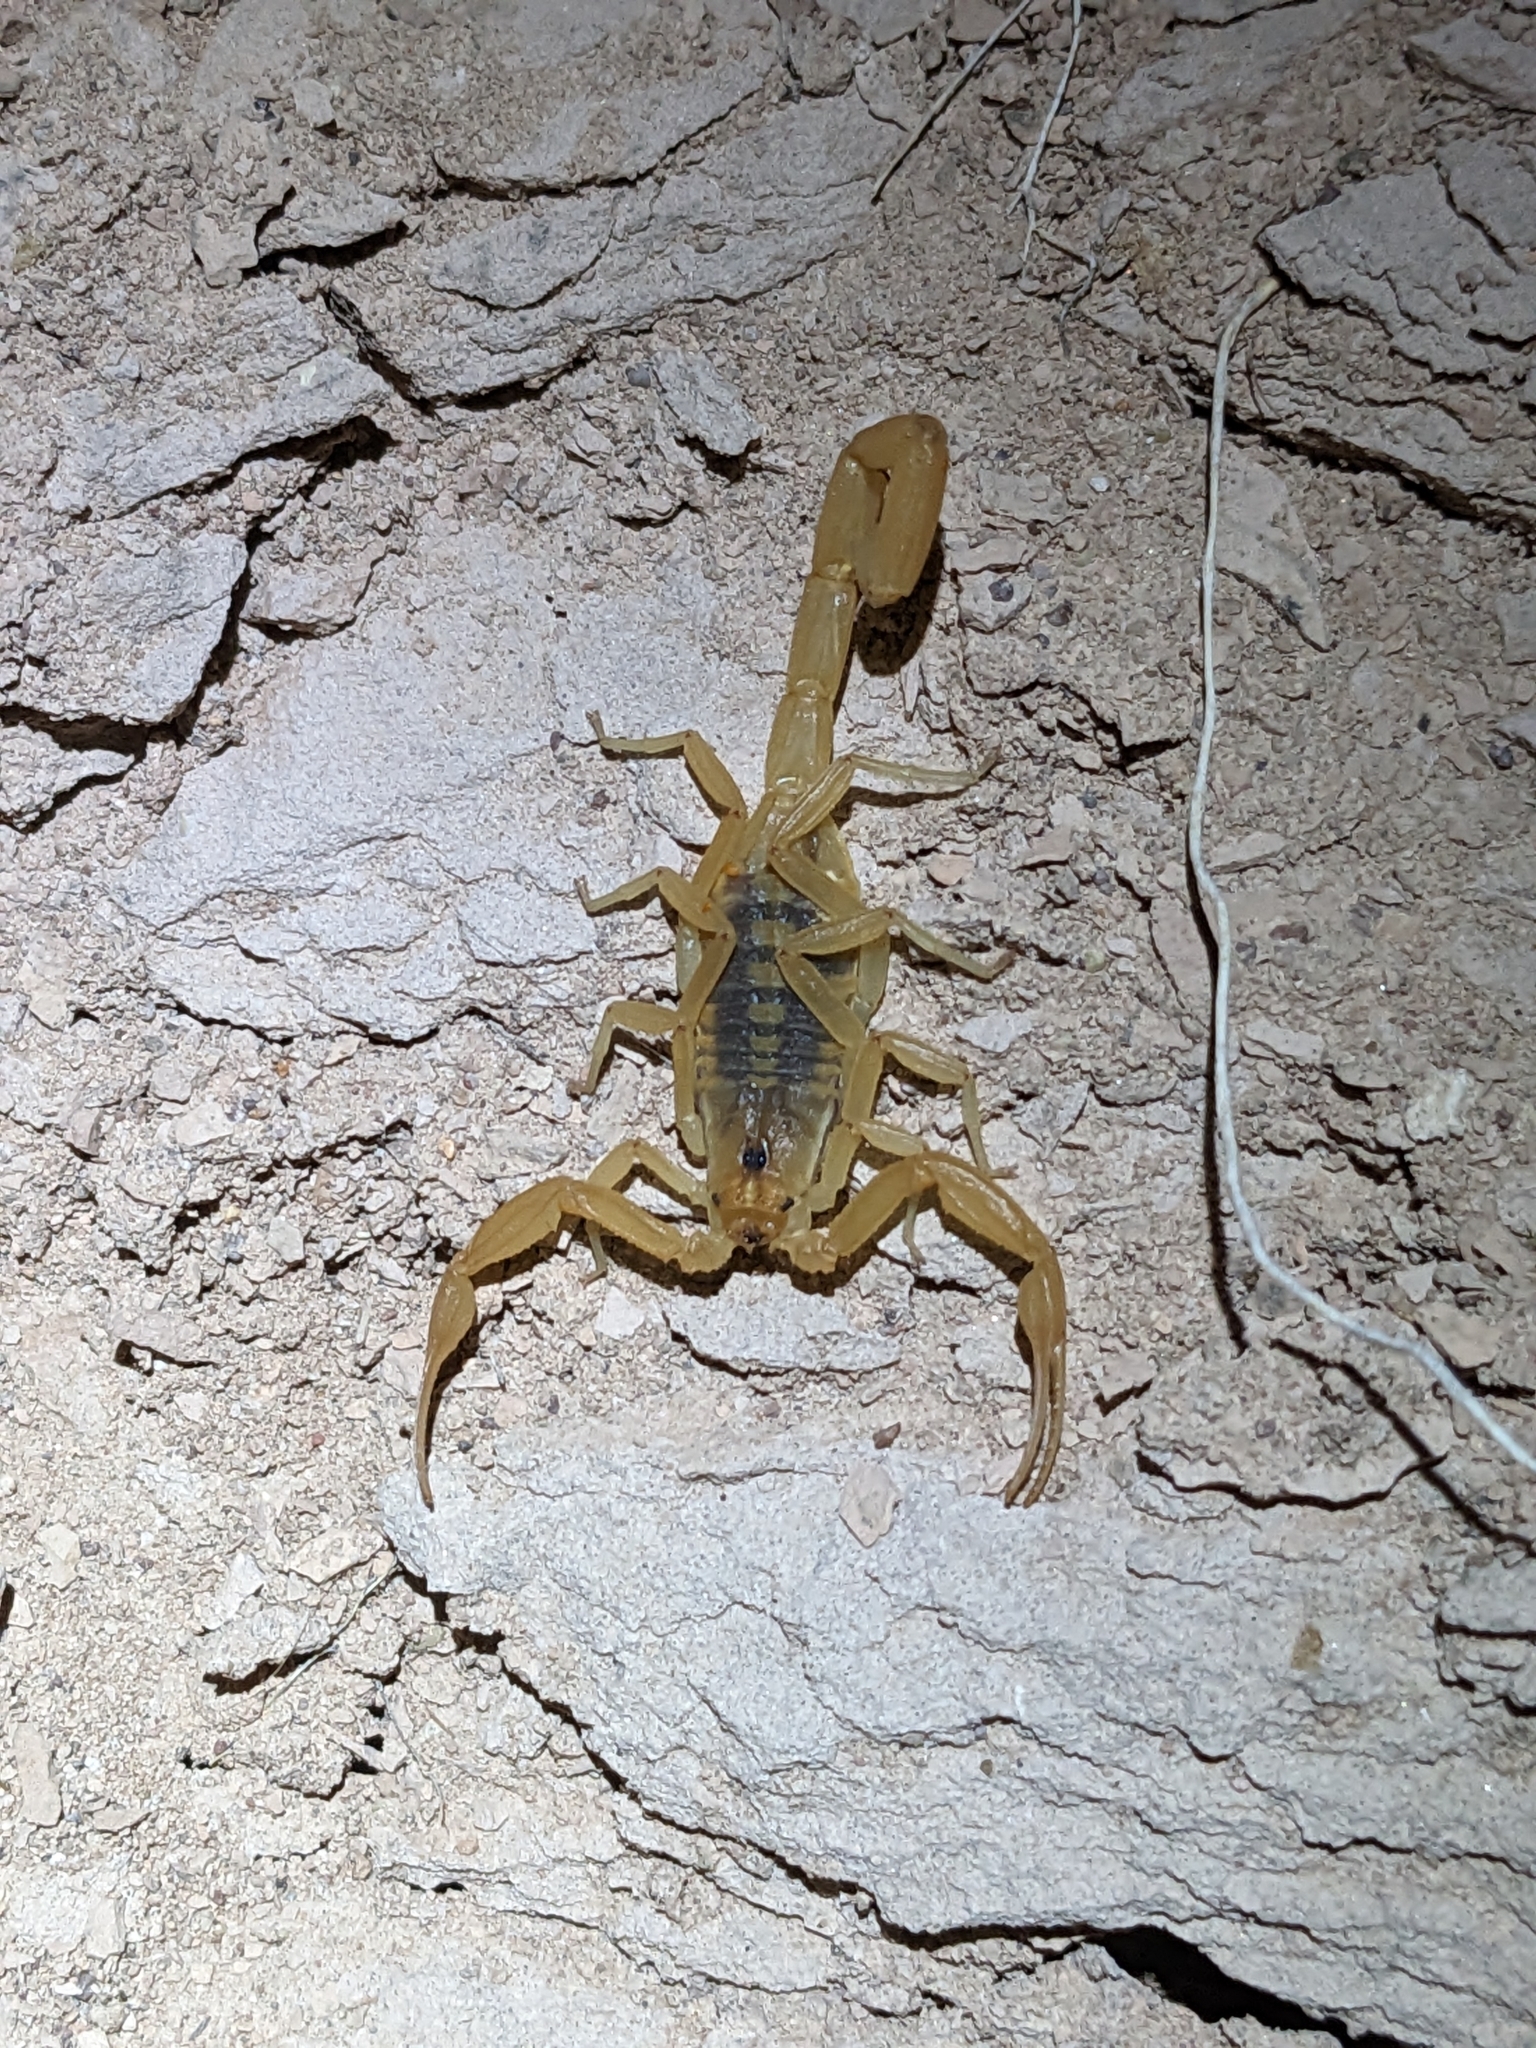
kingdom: Animalia
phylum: Arthropoda
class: Arachnida
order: Scorpiones
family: Buthidae
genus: Centruroides
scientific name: Centruroides sculpturatus
